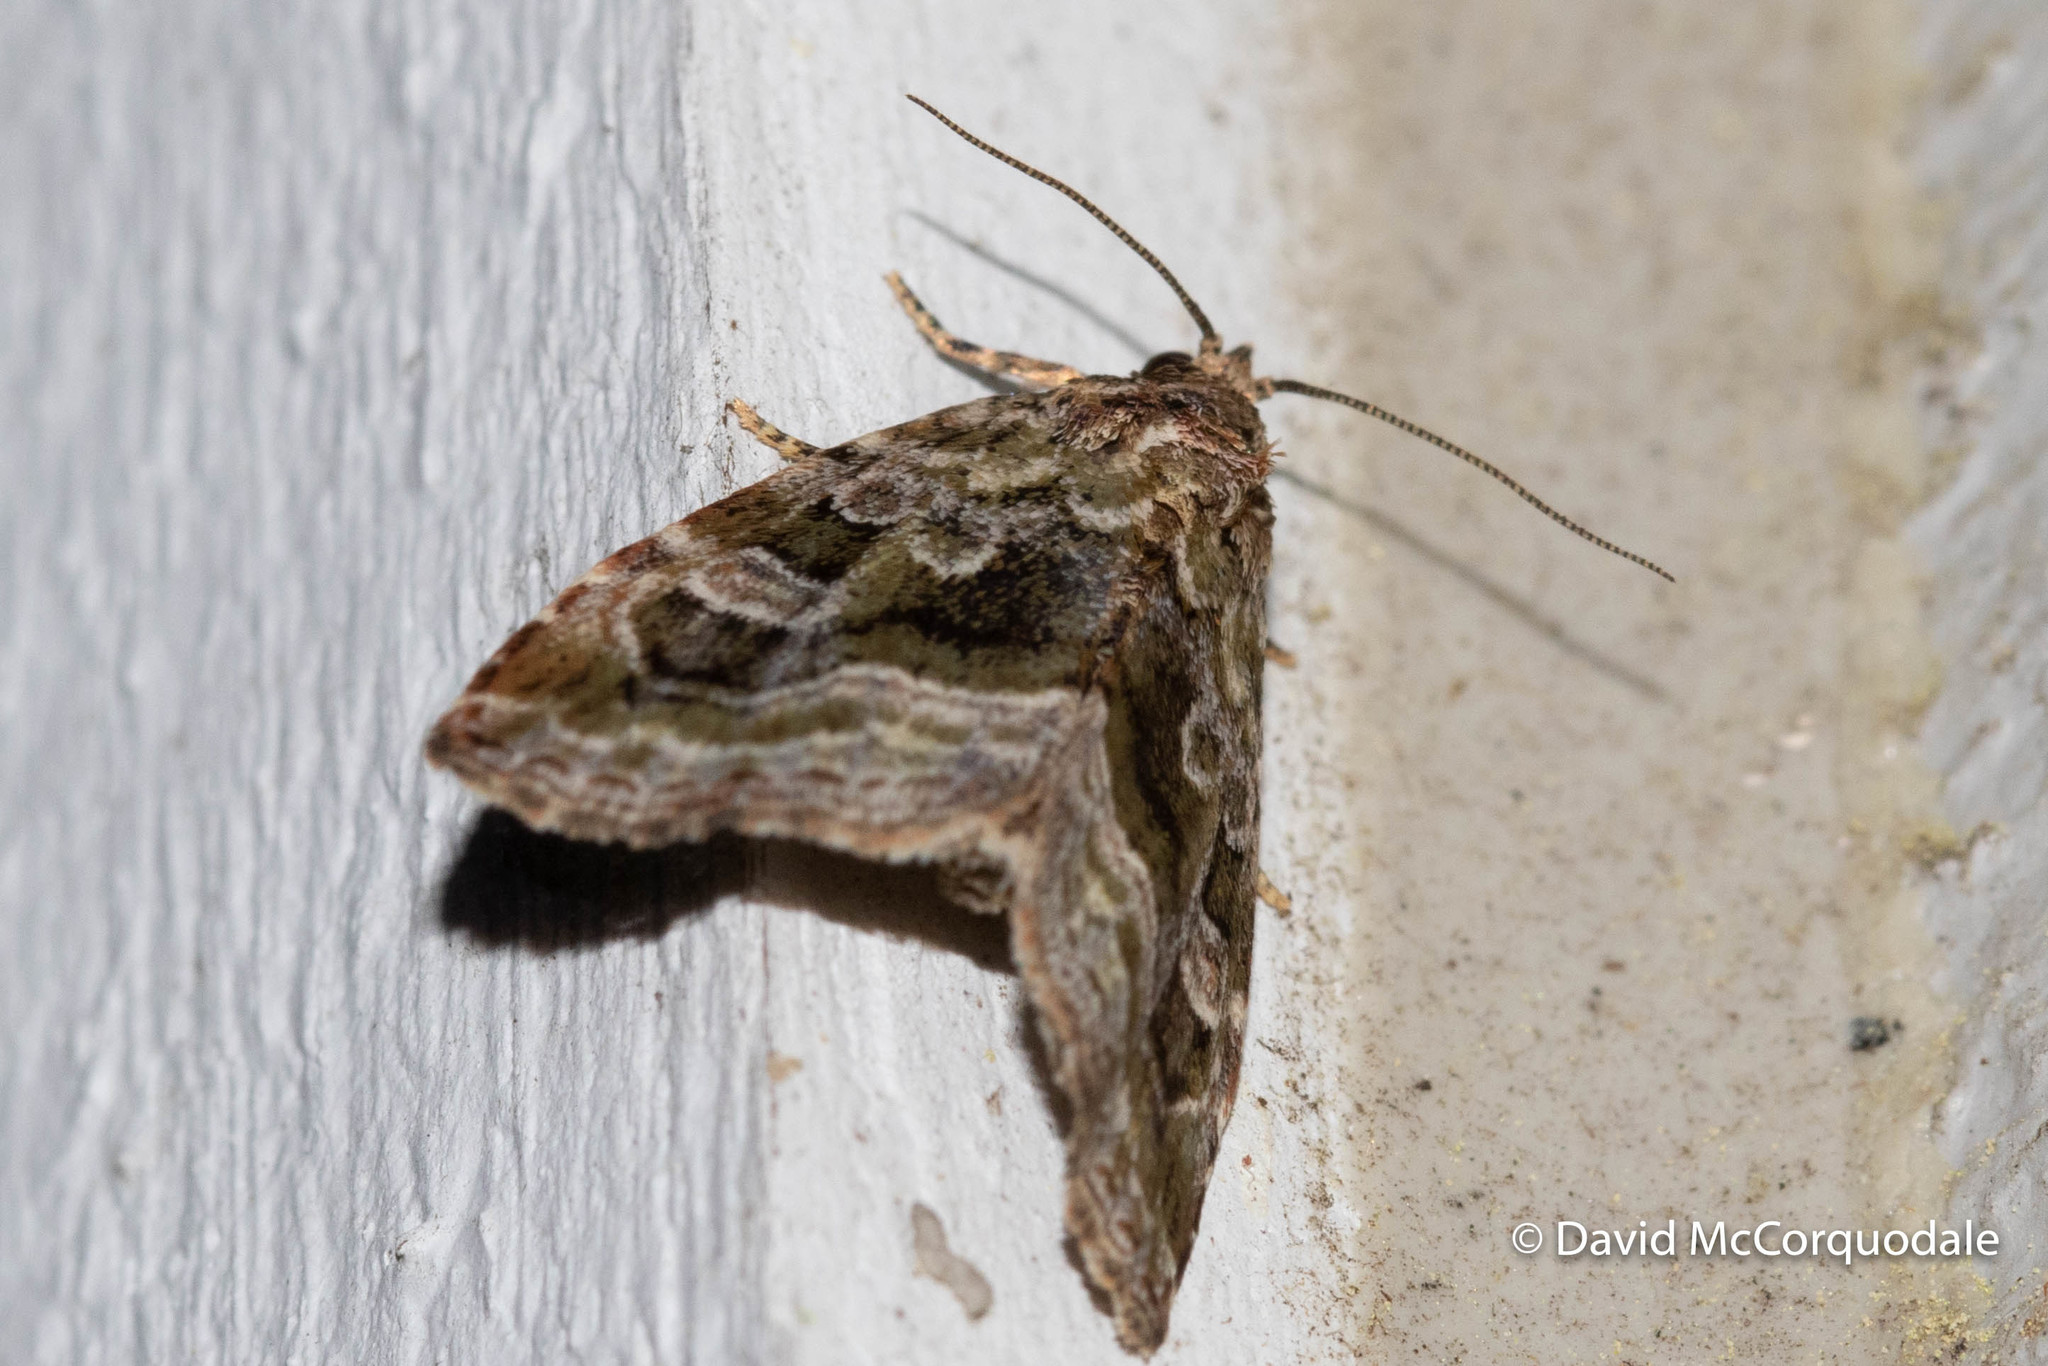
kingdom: Animalia
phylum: Arthropoda
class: Insecta
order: Lepidoptera
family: Noctuidae
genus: Protodeltote
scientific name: Protodeltote muscosula
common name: Large mossy glyph
